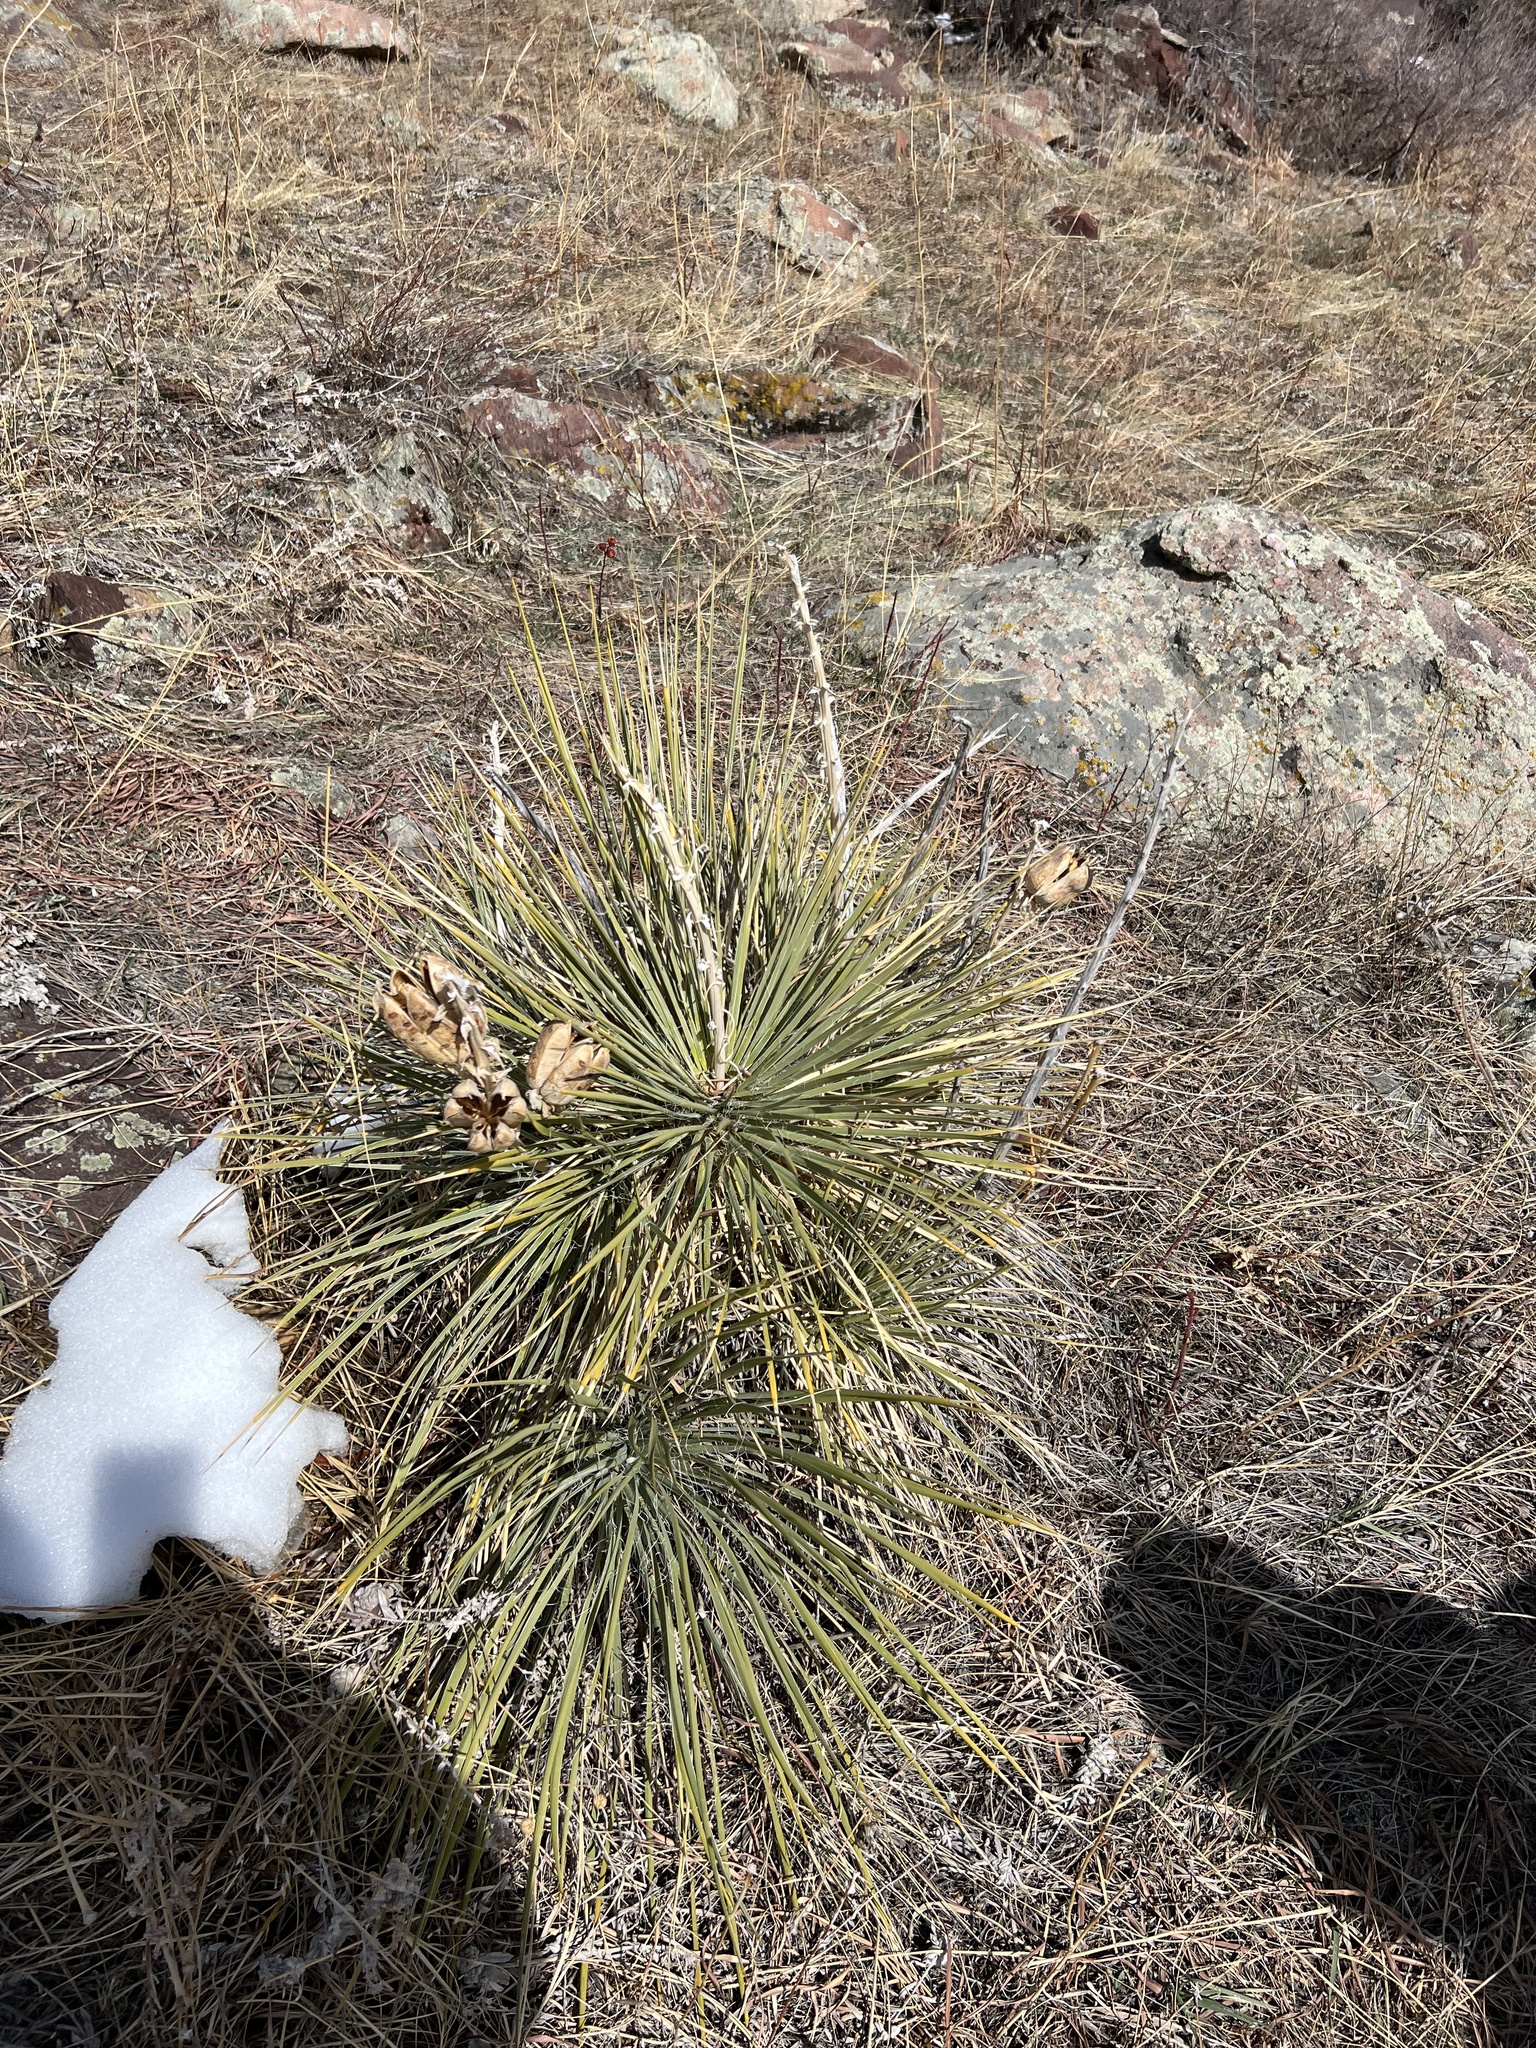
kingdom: Plantae
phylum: Tracheophyta
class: Liliopsida
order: Asparagales
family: Asparagaceae
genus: Yucca
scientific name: Yucca glauca
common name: Great plains yucca
